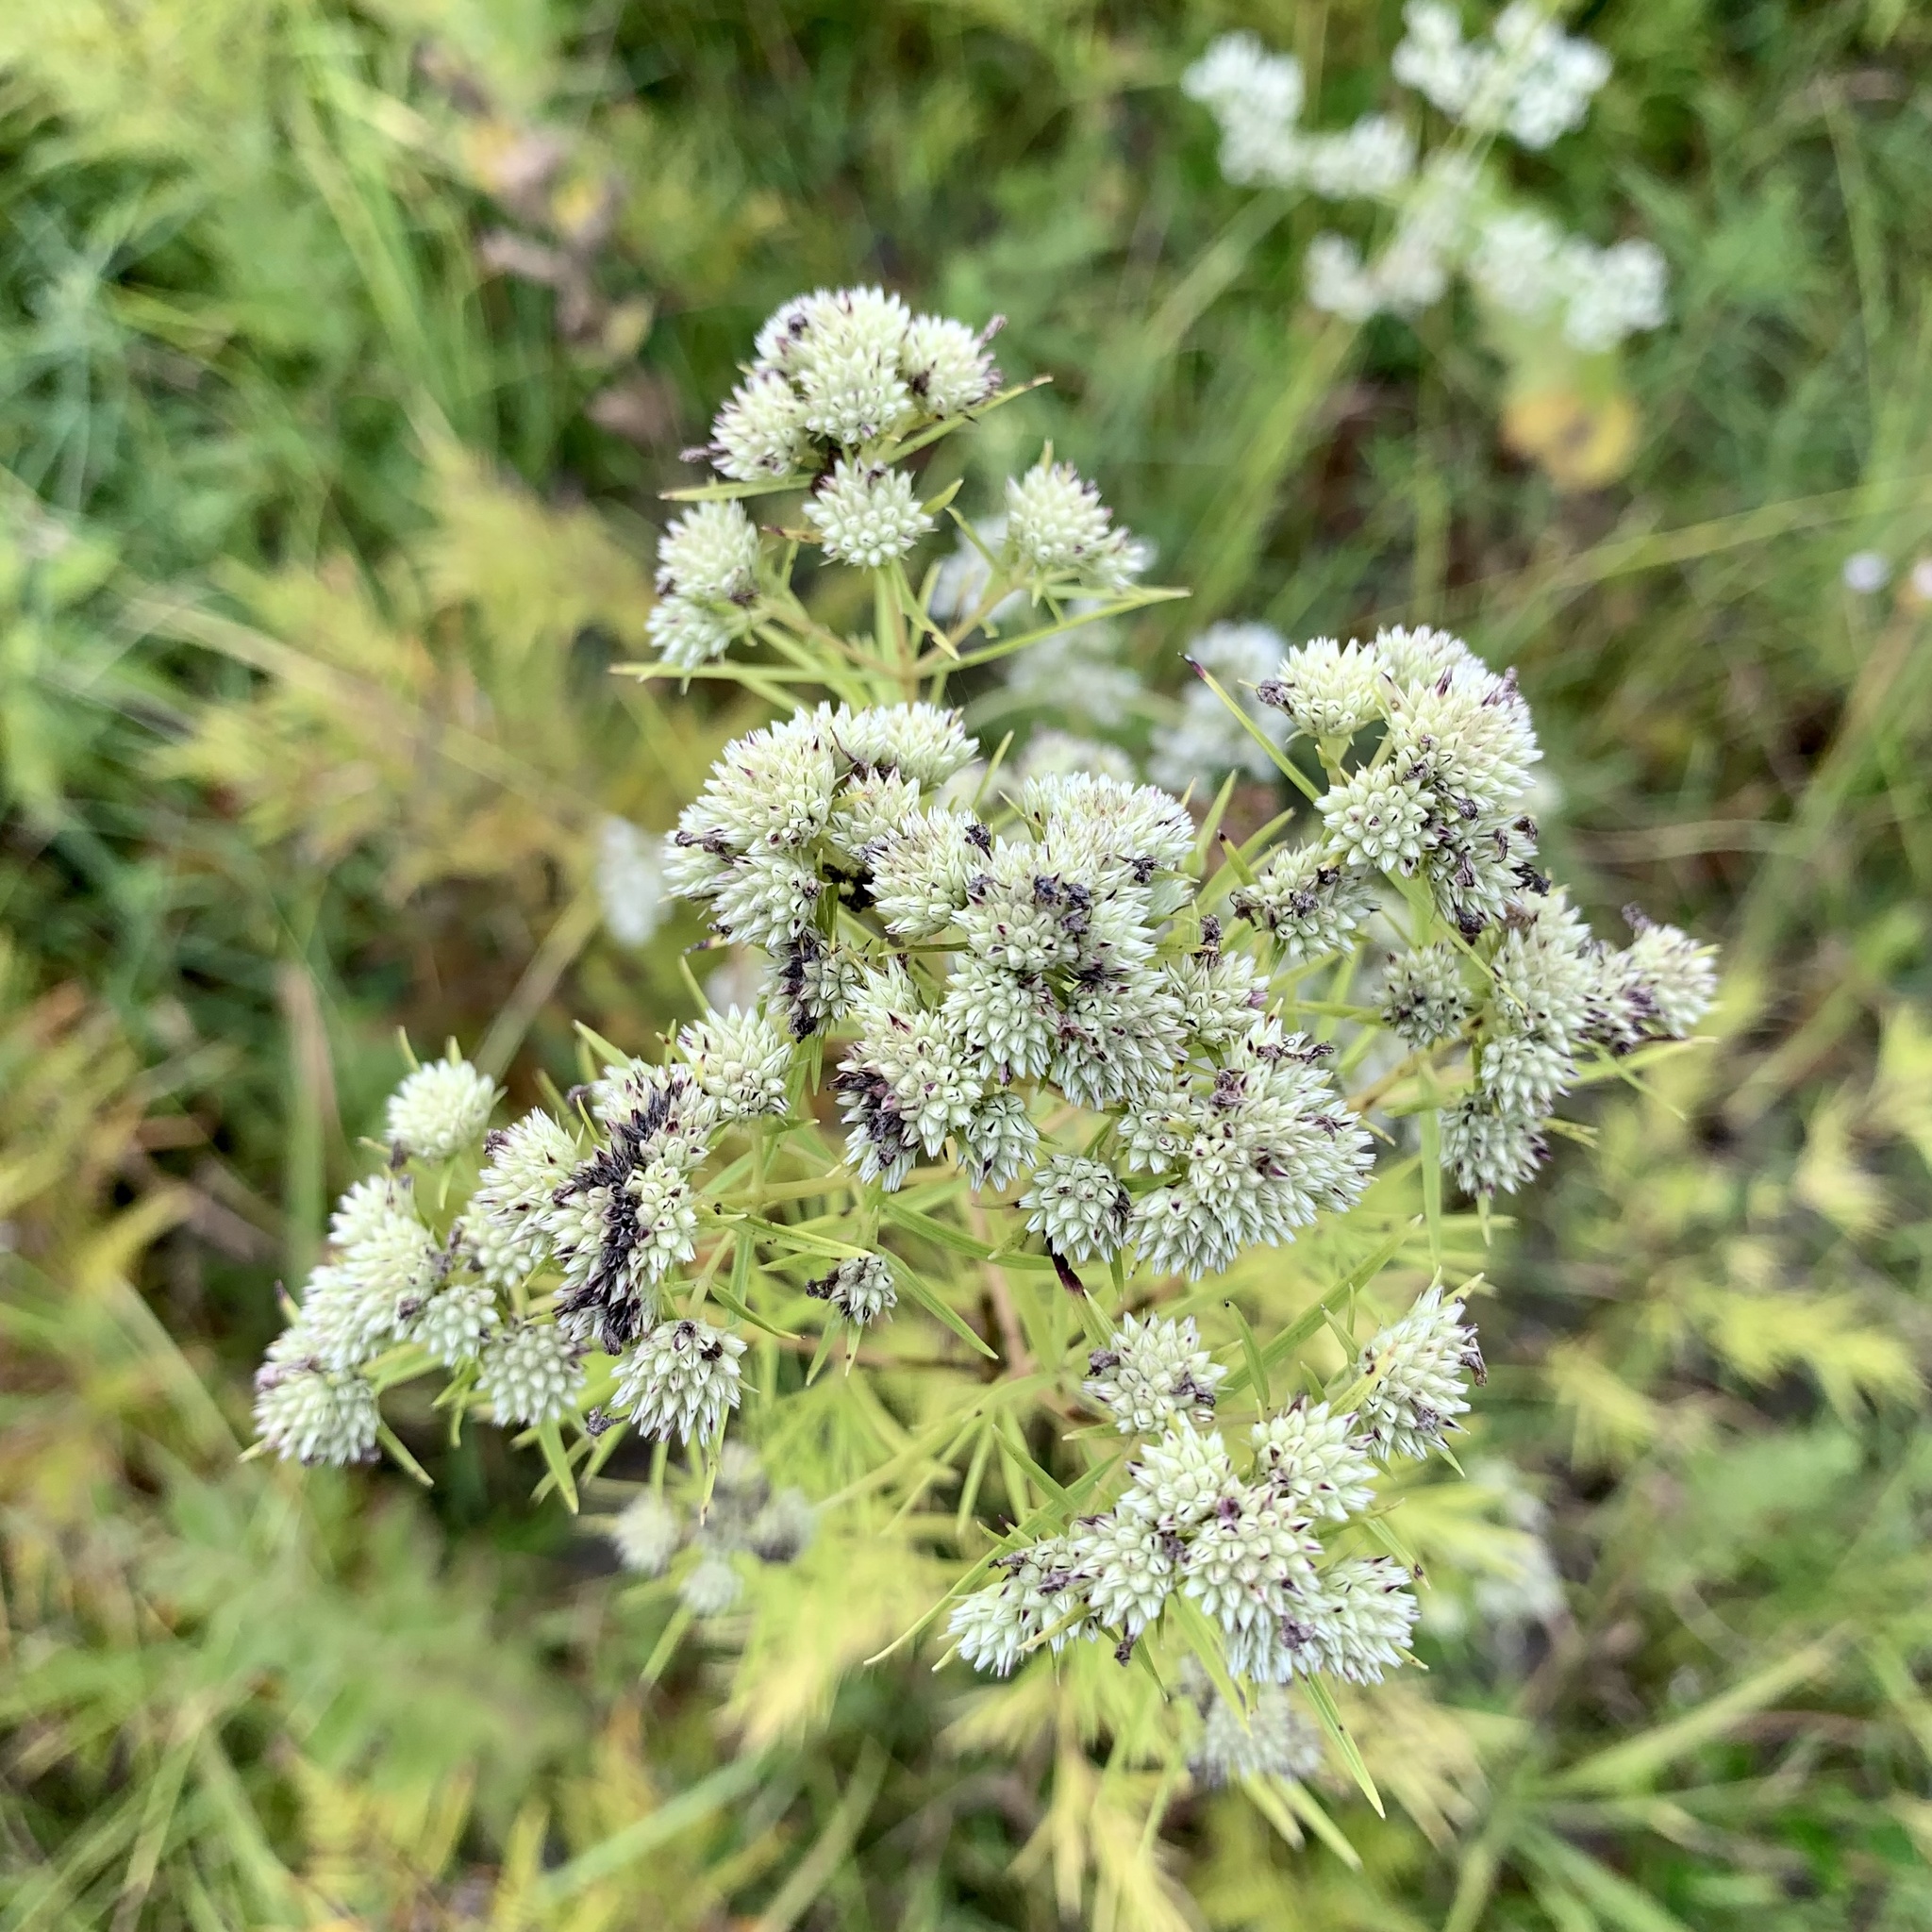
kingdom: Plantae
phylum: Tracheophyta
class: Magnoliopsida
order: Lamiales
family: Lamiaceae
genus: Pycnanthemum
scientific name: Pycnanthemum tenuifolium
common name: Narrow-leaf mountain-mint
